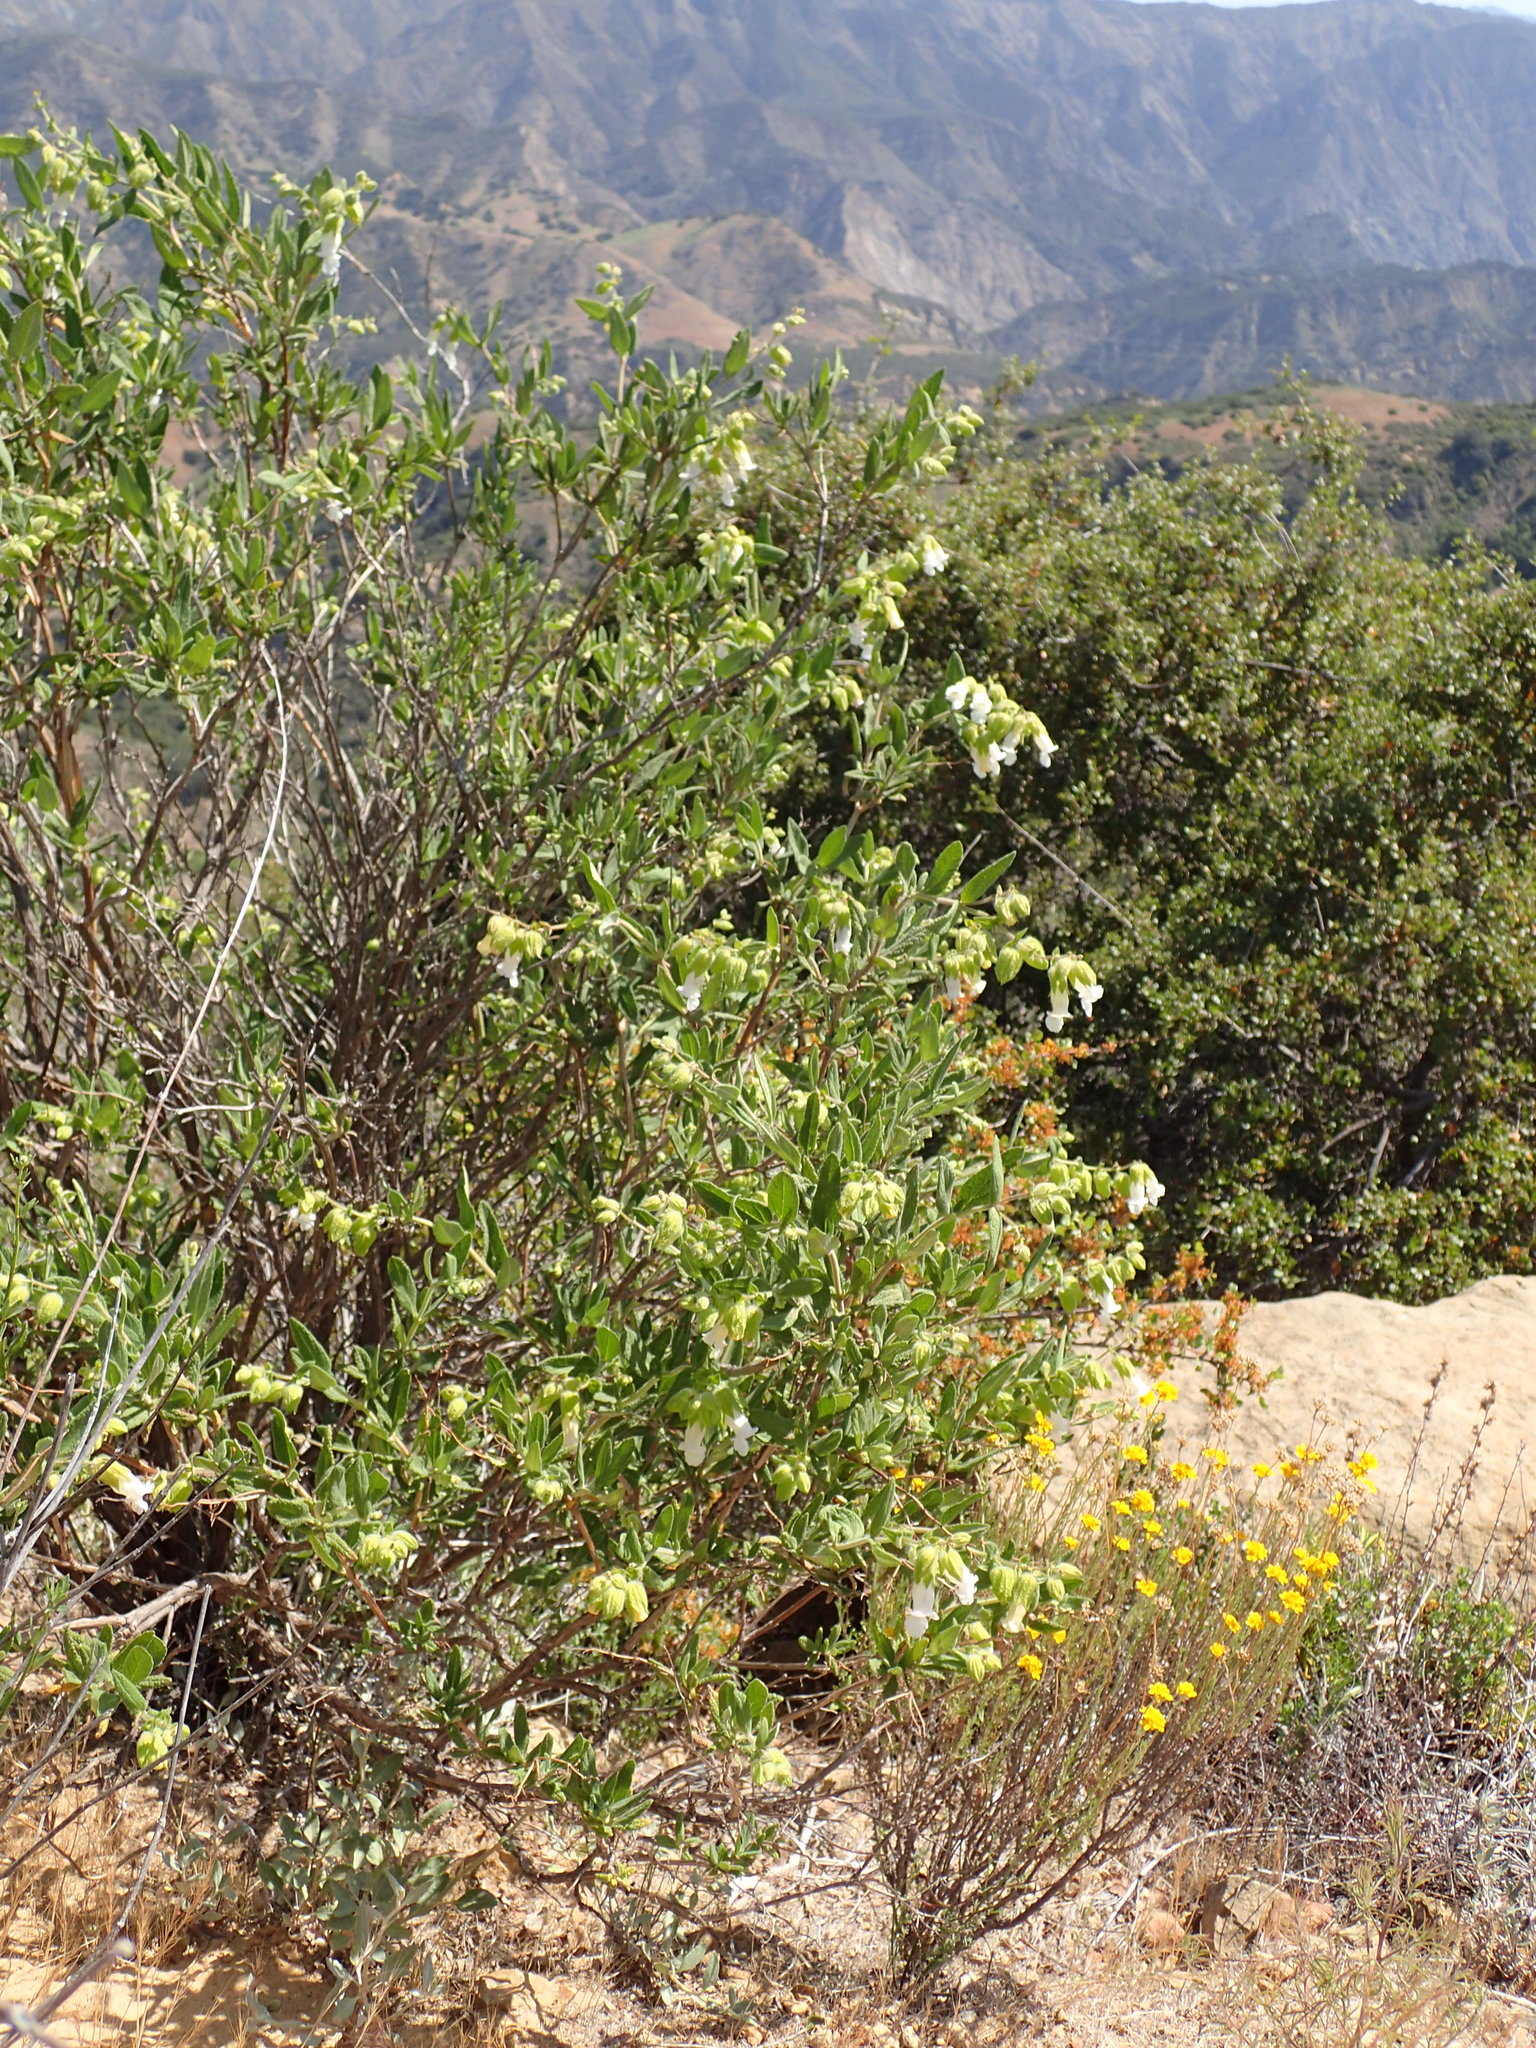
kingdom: Plantae
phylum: Tracheophyta
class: Magnoliopsida
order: Lamiales
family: Lamiaceae
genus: Lepechinia
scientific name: Lepechinia calycina
